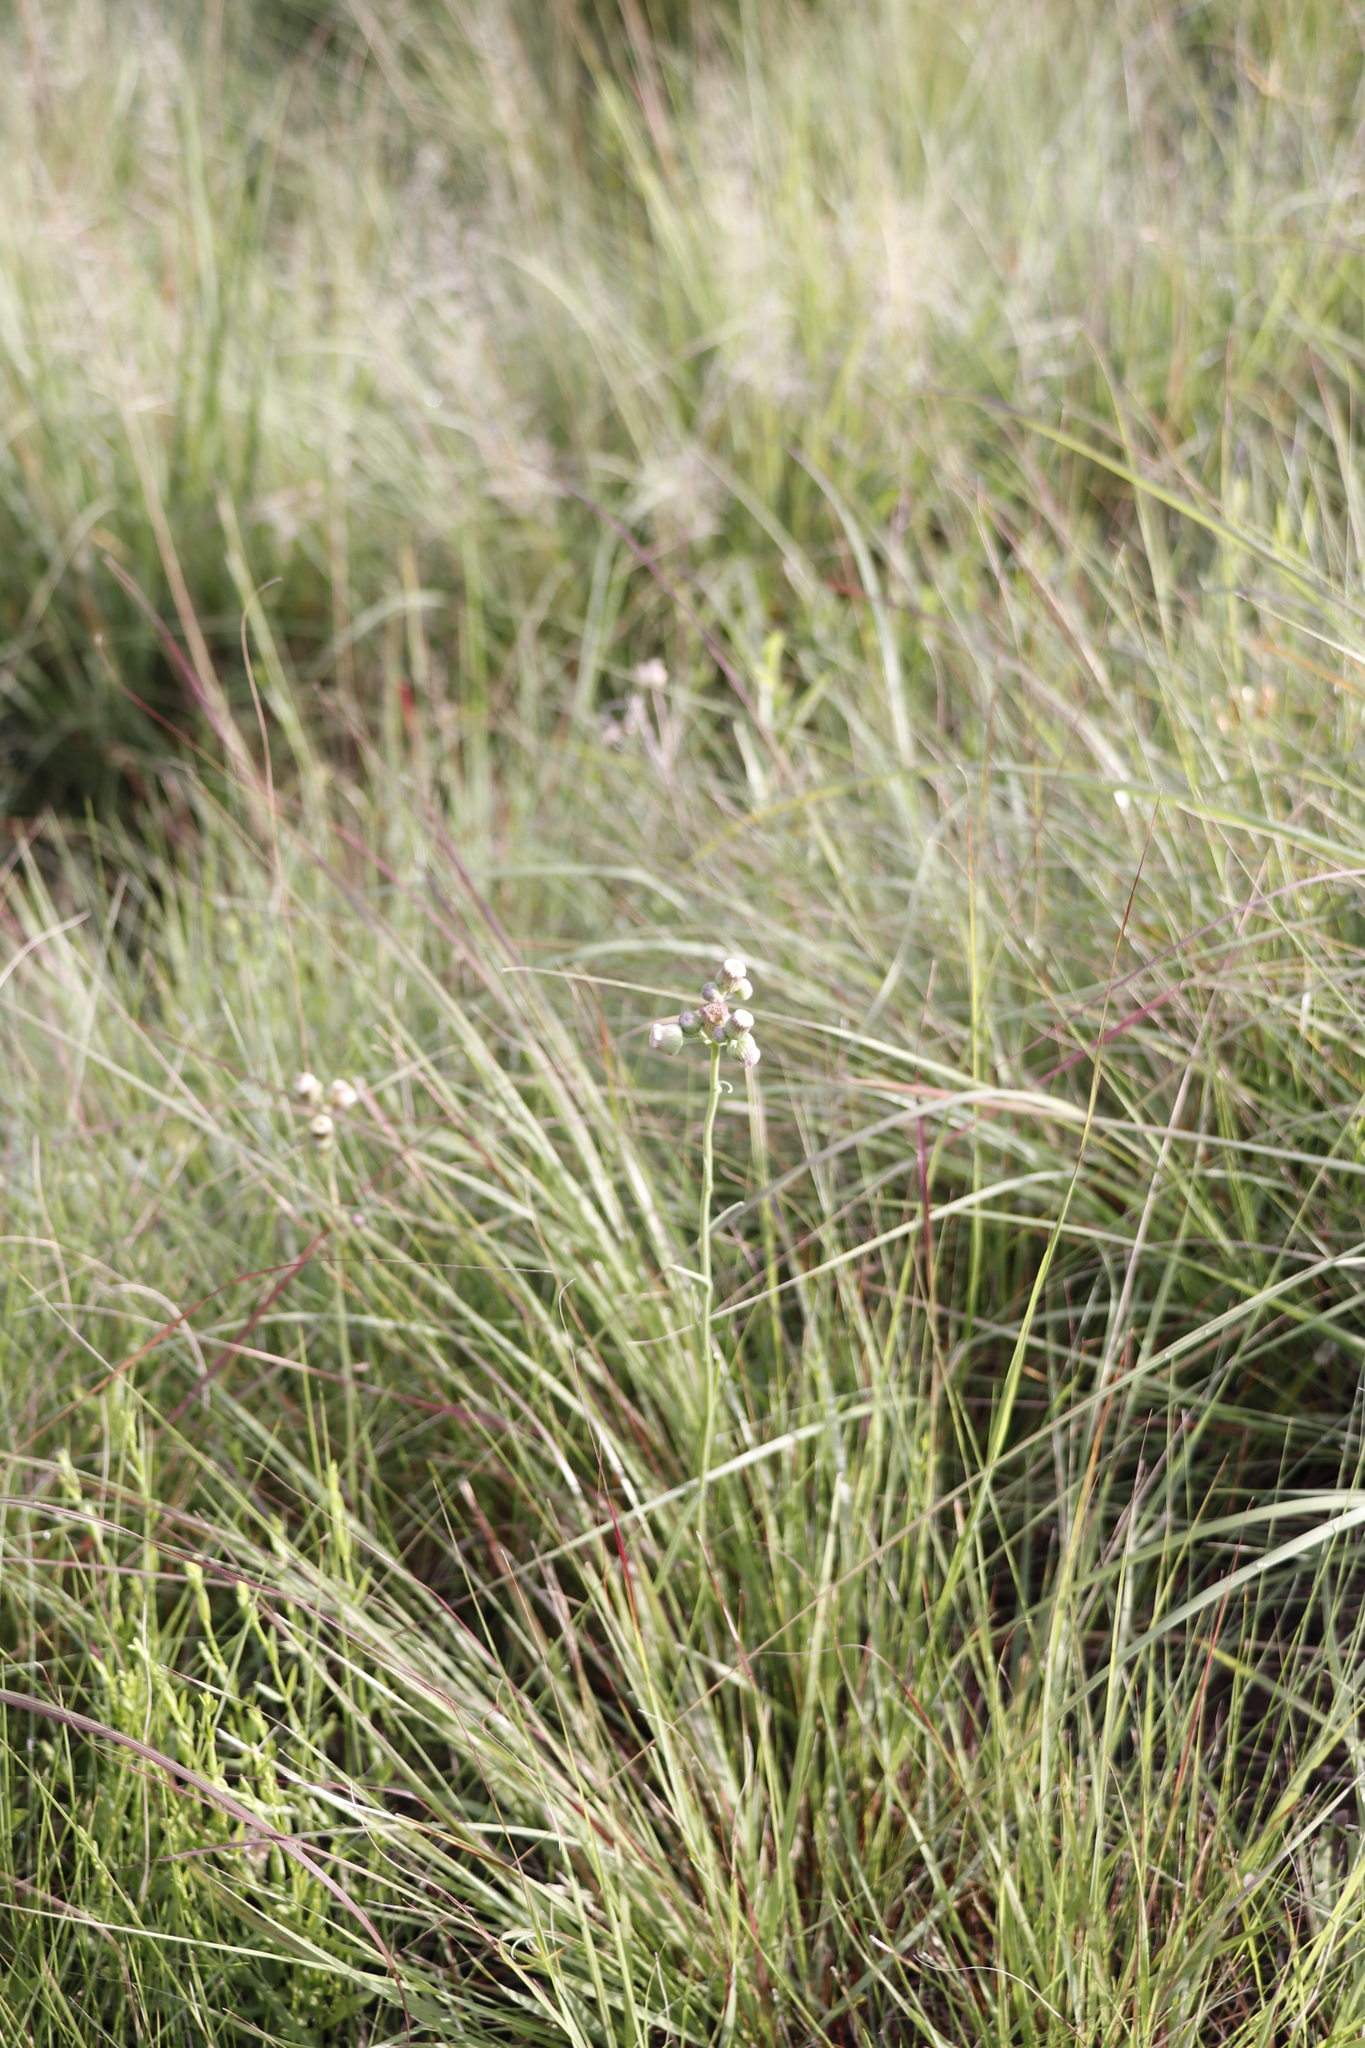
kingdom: Plantae
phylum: Tracheophyta
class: Magnoliopsida
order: Asterales
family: Asteraceae
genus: Erigeron
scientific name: Erigeron primulifolius
